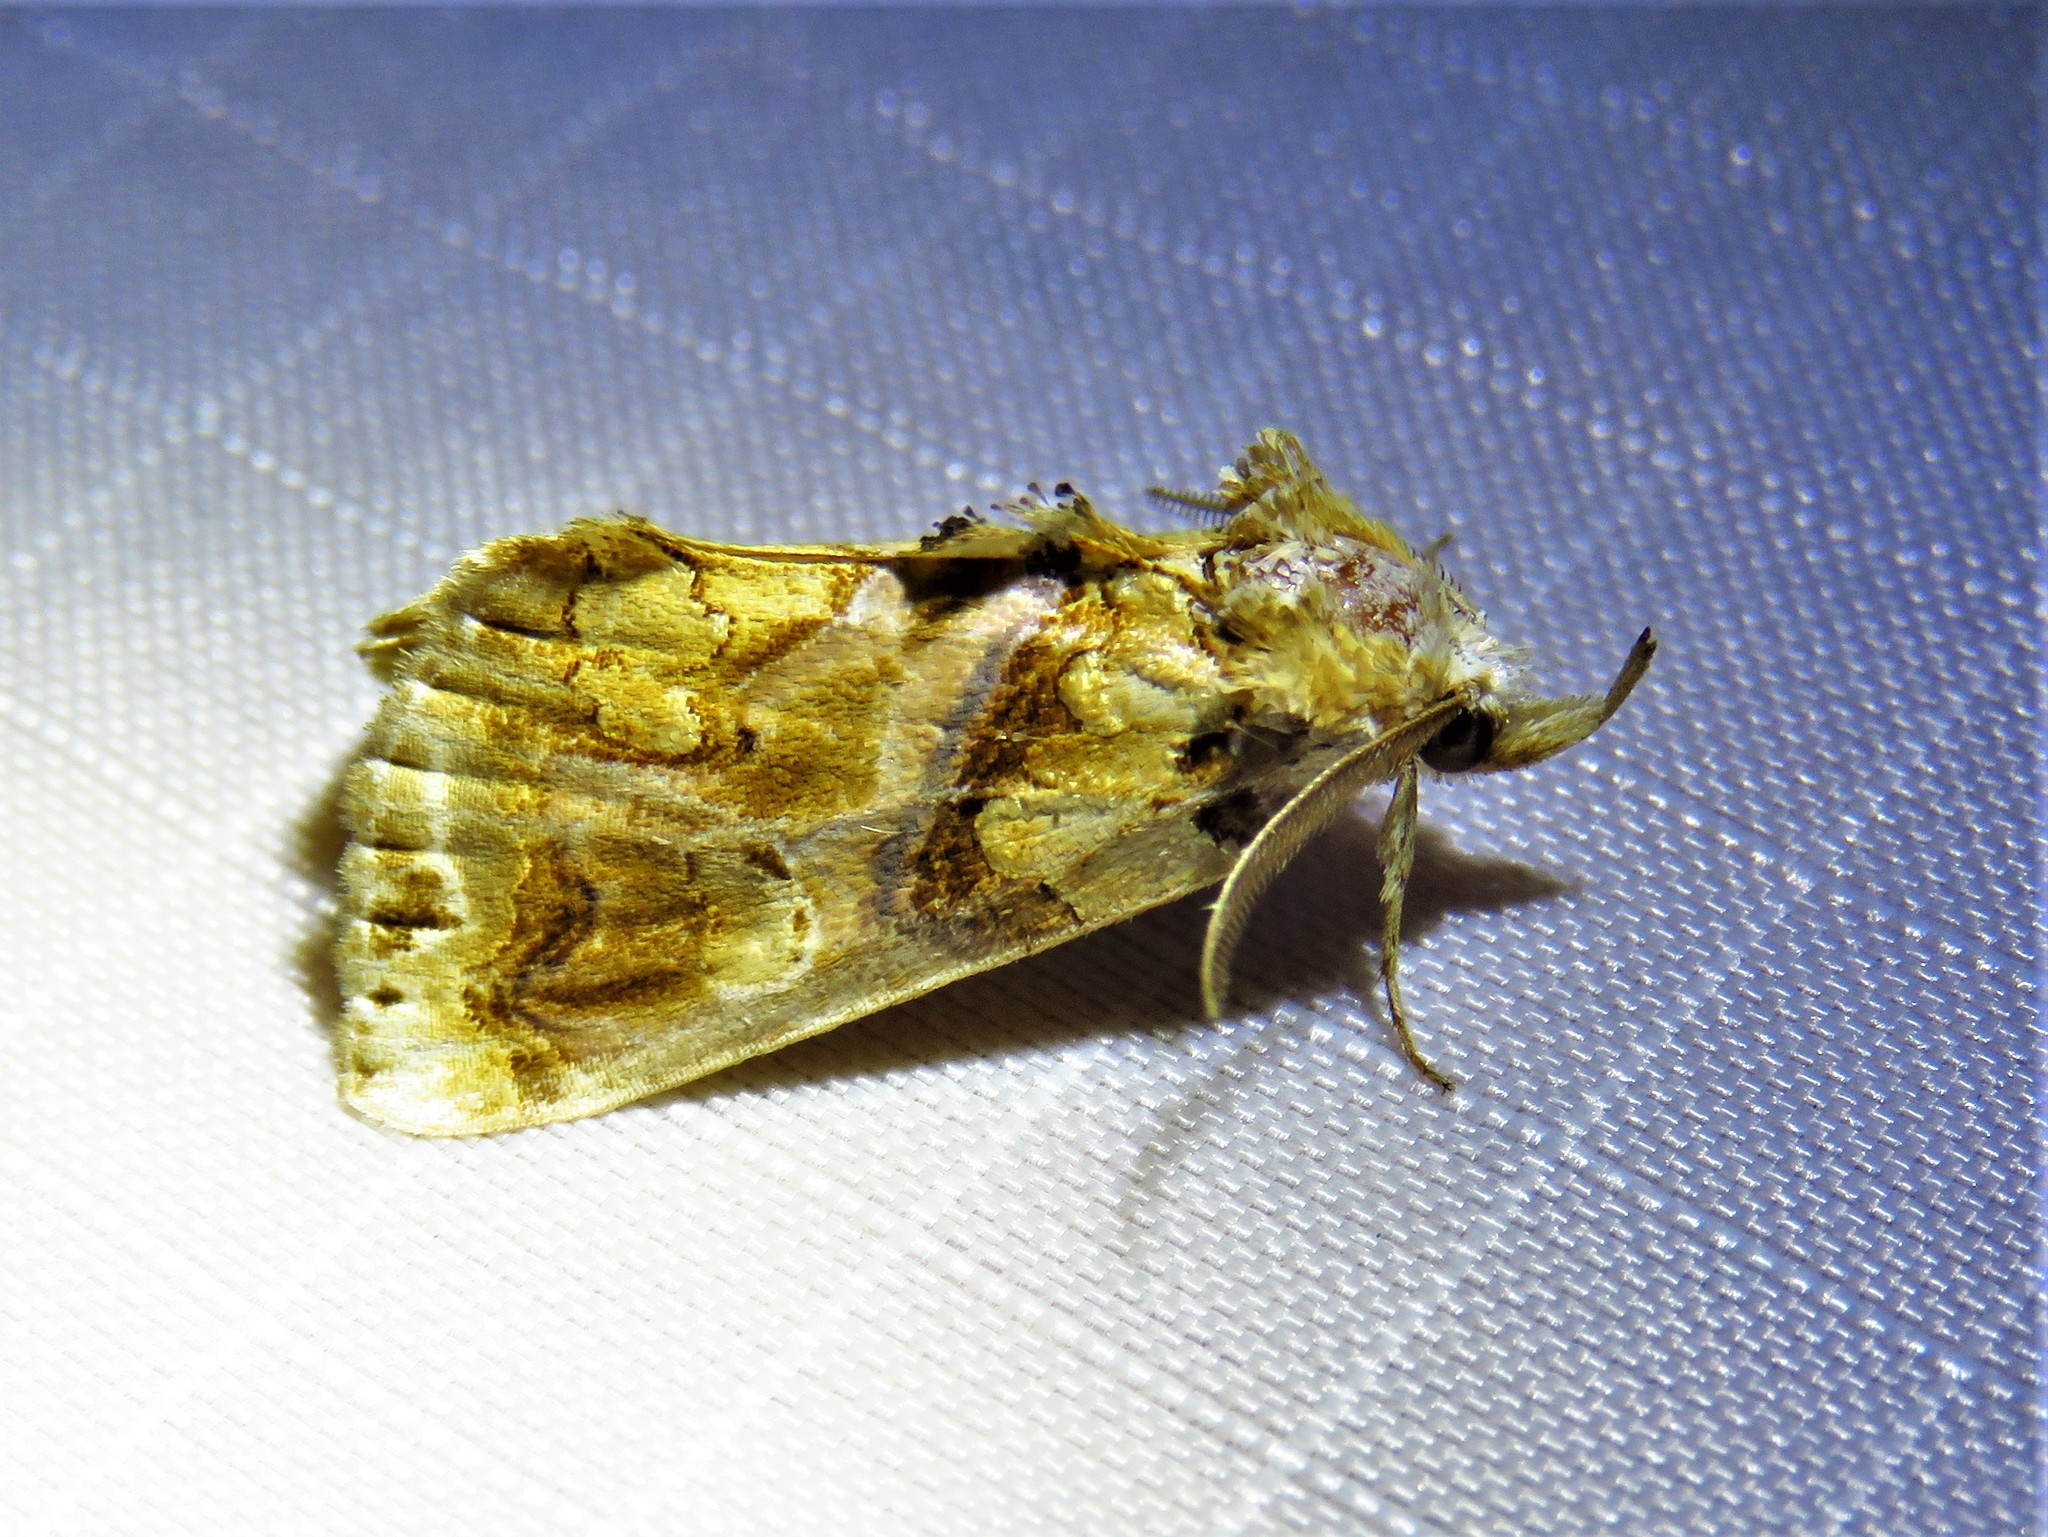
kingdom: Animalia
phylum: Arthropoda
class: Insecta
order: Lepidoptera
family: Erebidae
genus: Plusiodonta
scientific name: Plusiodonta compressipalpis
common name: Moonseed moth
